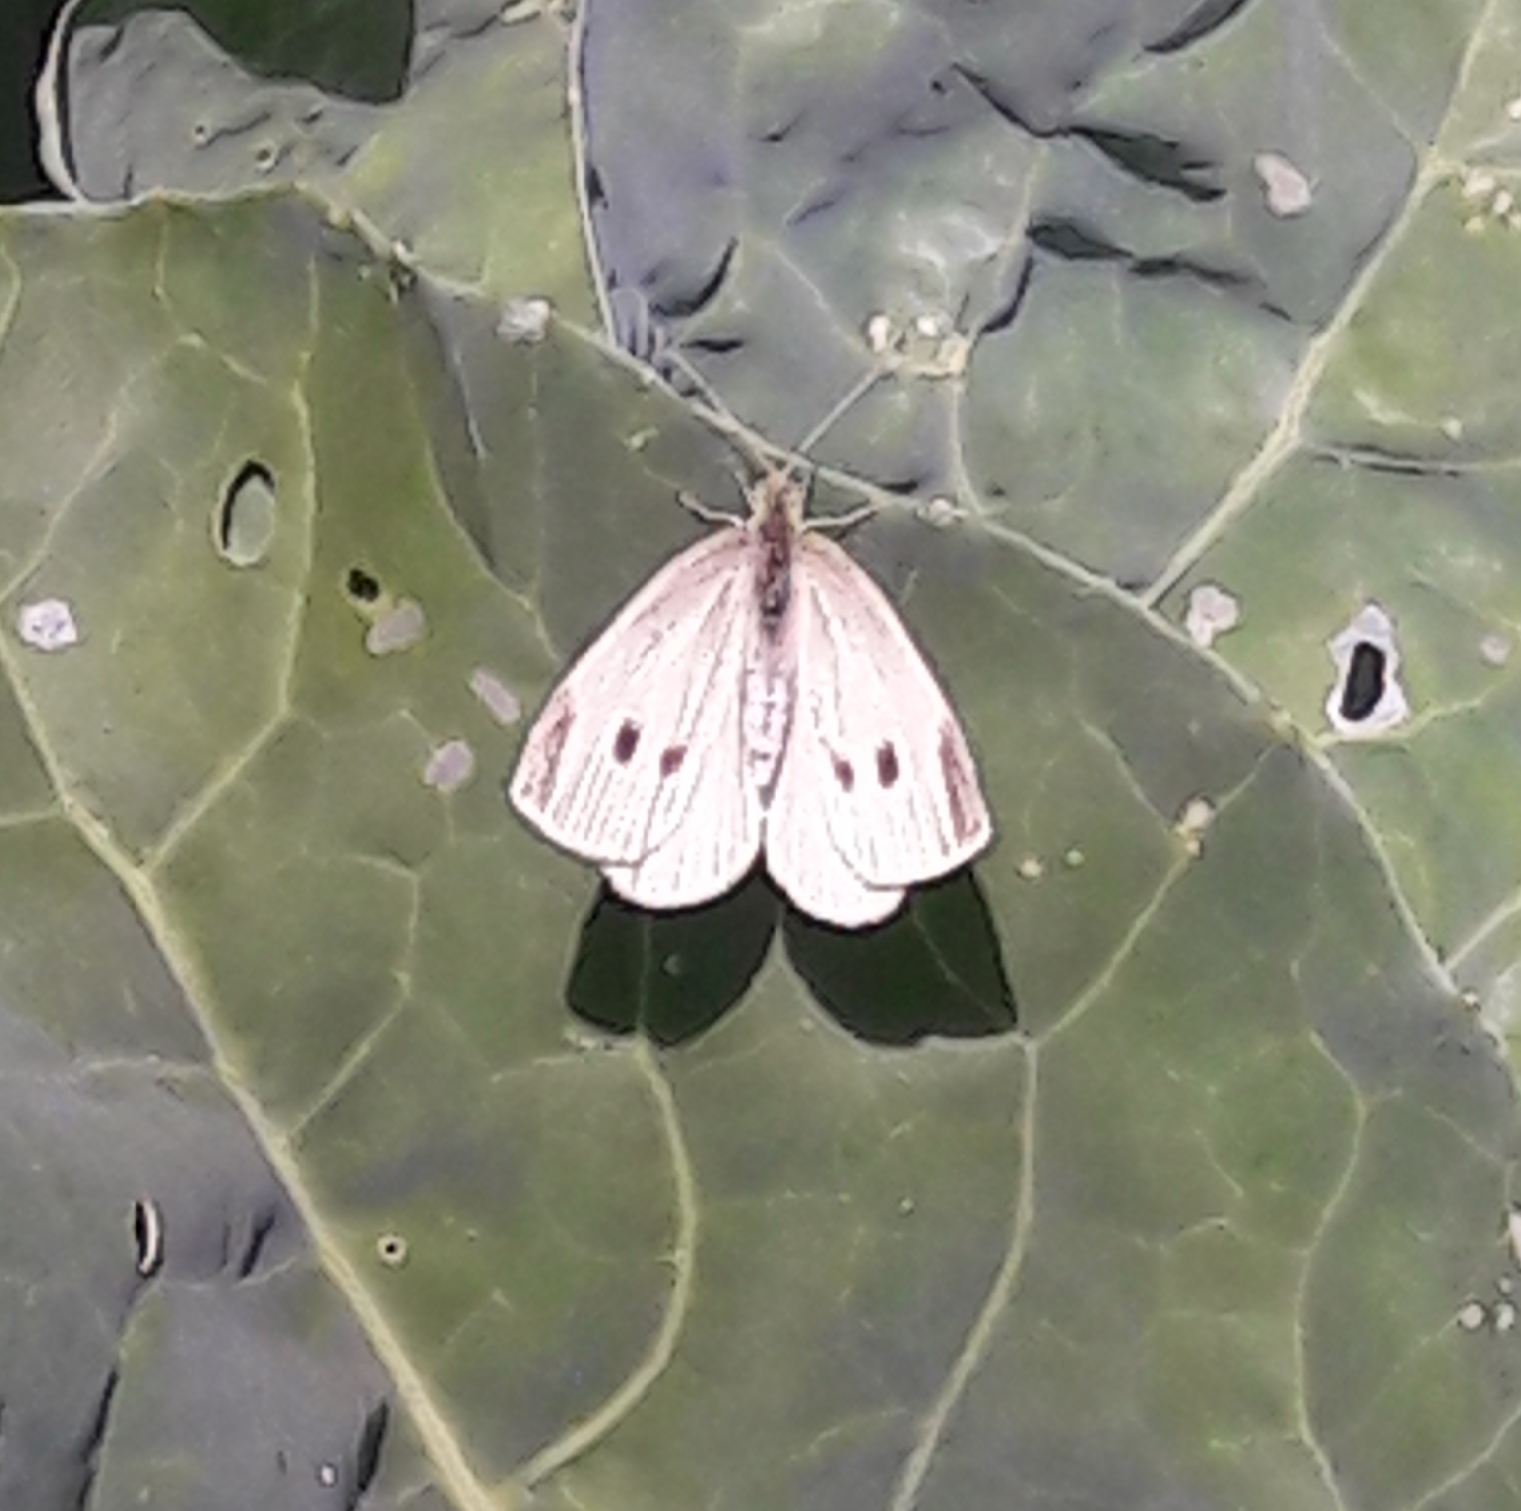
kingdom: Animalia
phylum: Arthropoda
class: Insecta
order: Lepidoptera
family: Pieridae
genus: Pieris
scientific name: Pieris rapae
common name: Small white
